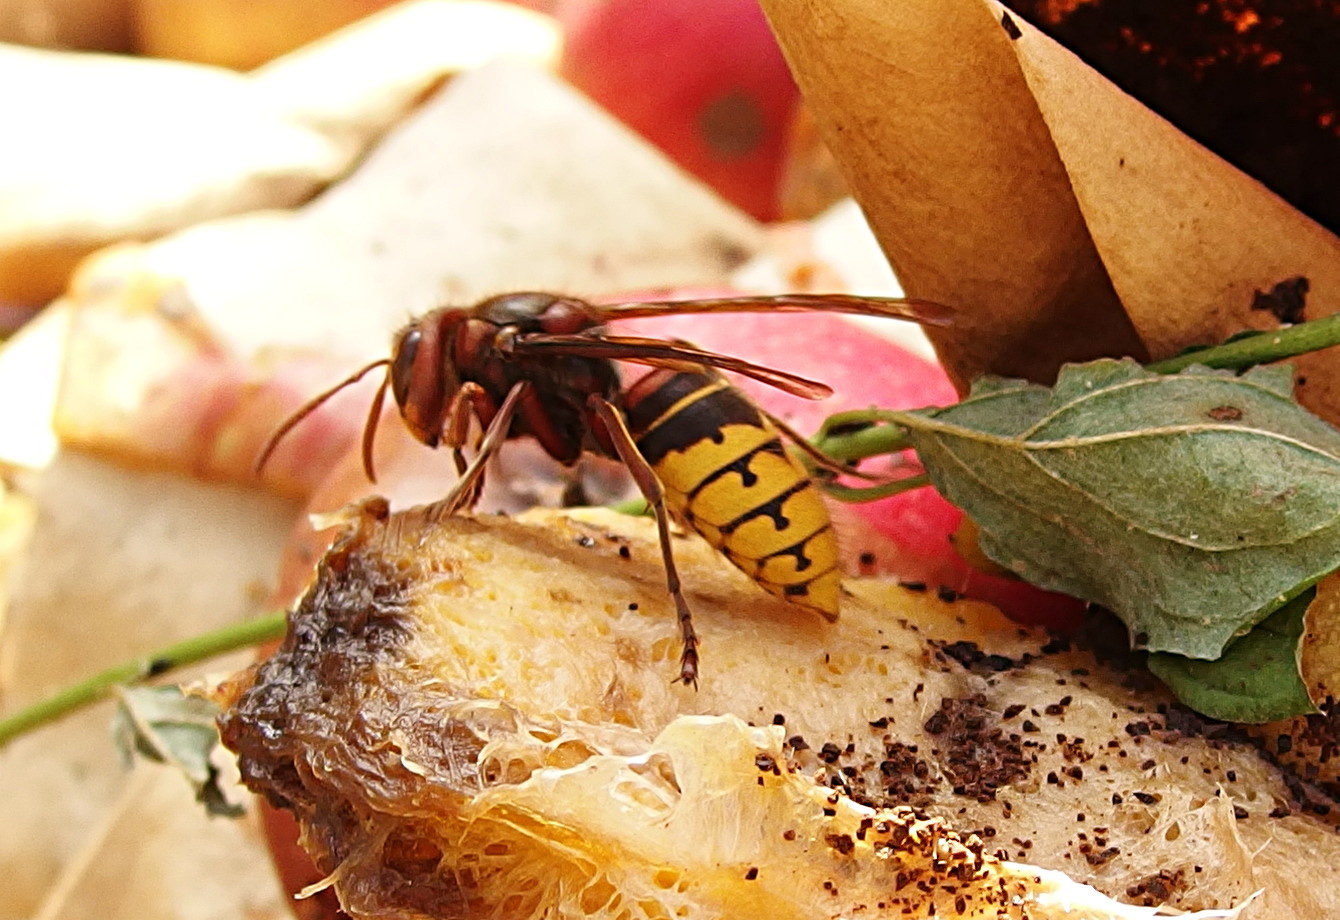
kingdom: Animalia
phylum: Arthropoda
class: Insecta
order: Hymenoptera
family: Vespidae
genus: Vespa
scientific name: Vespa crabro
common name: Hornet
